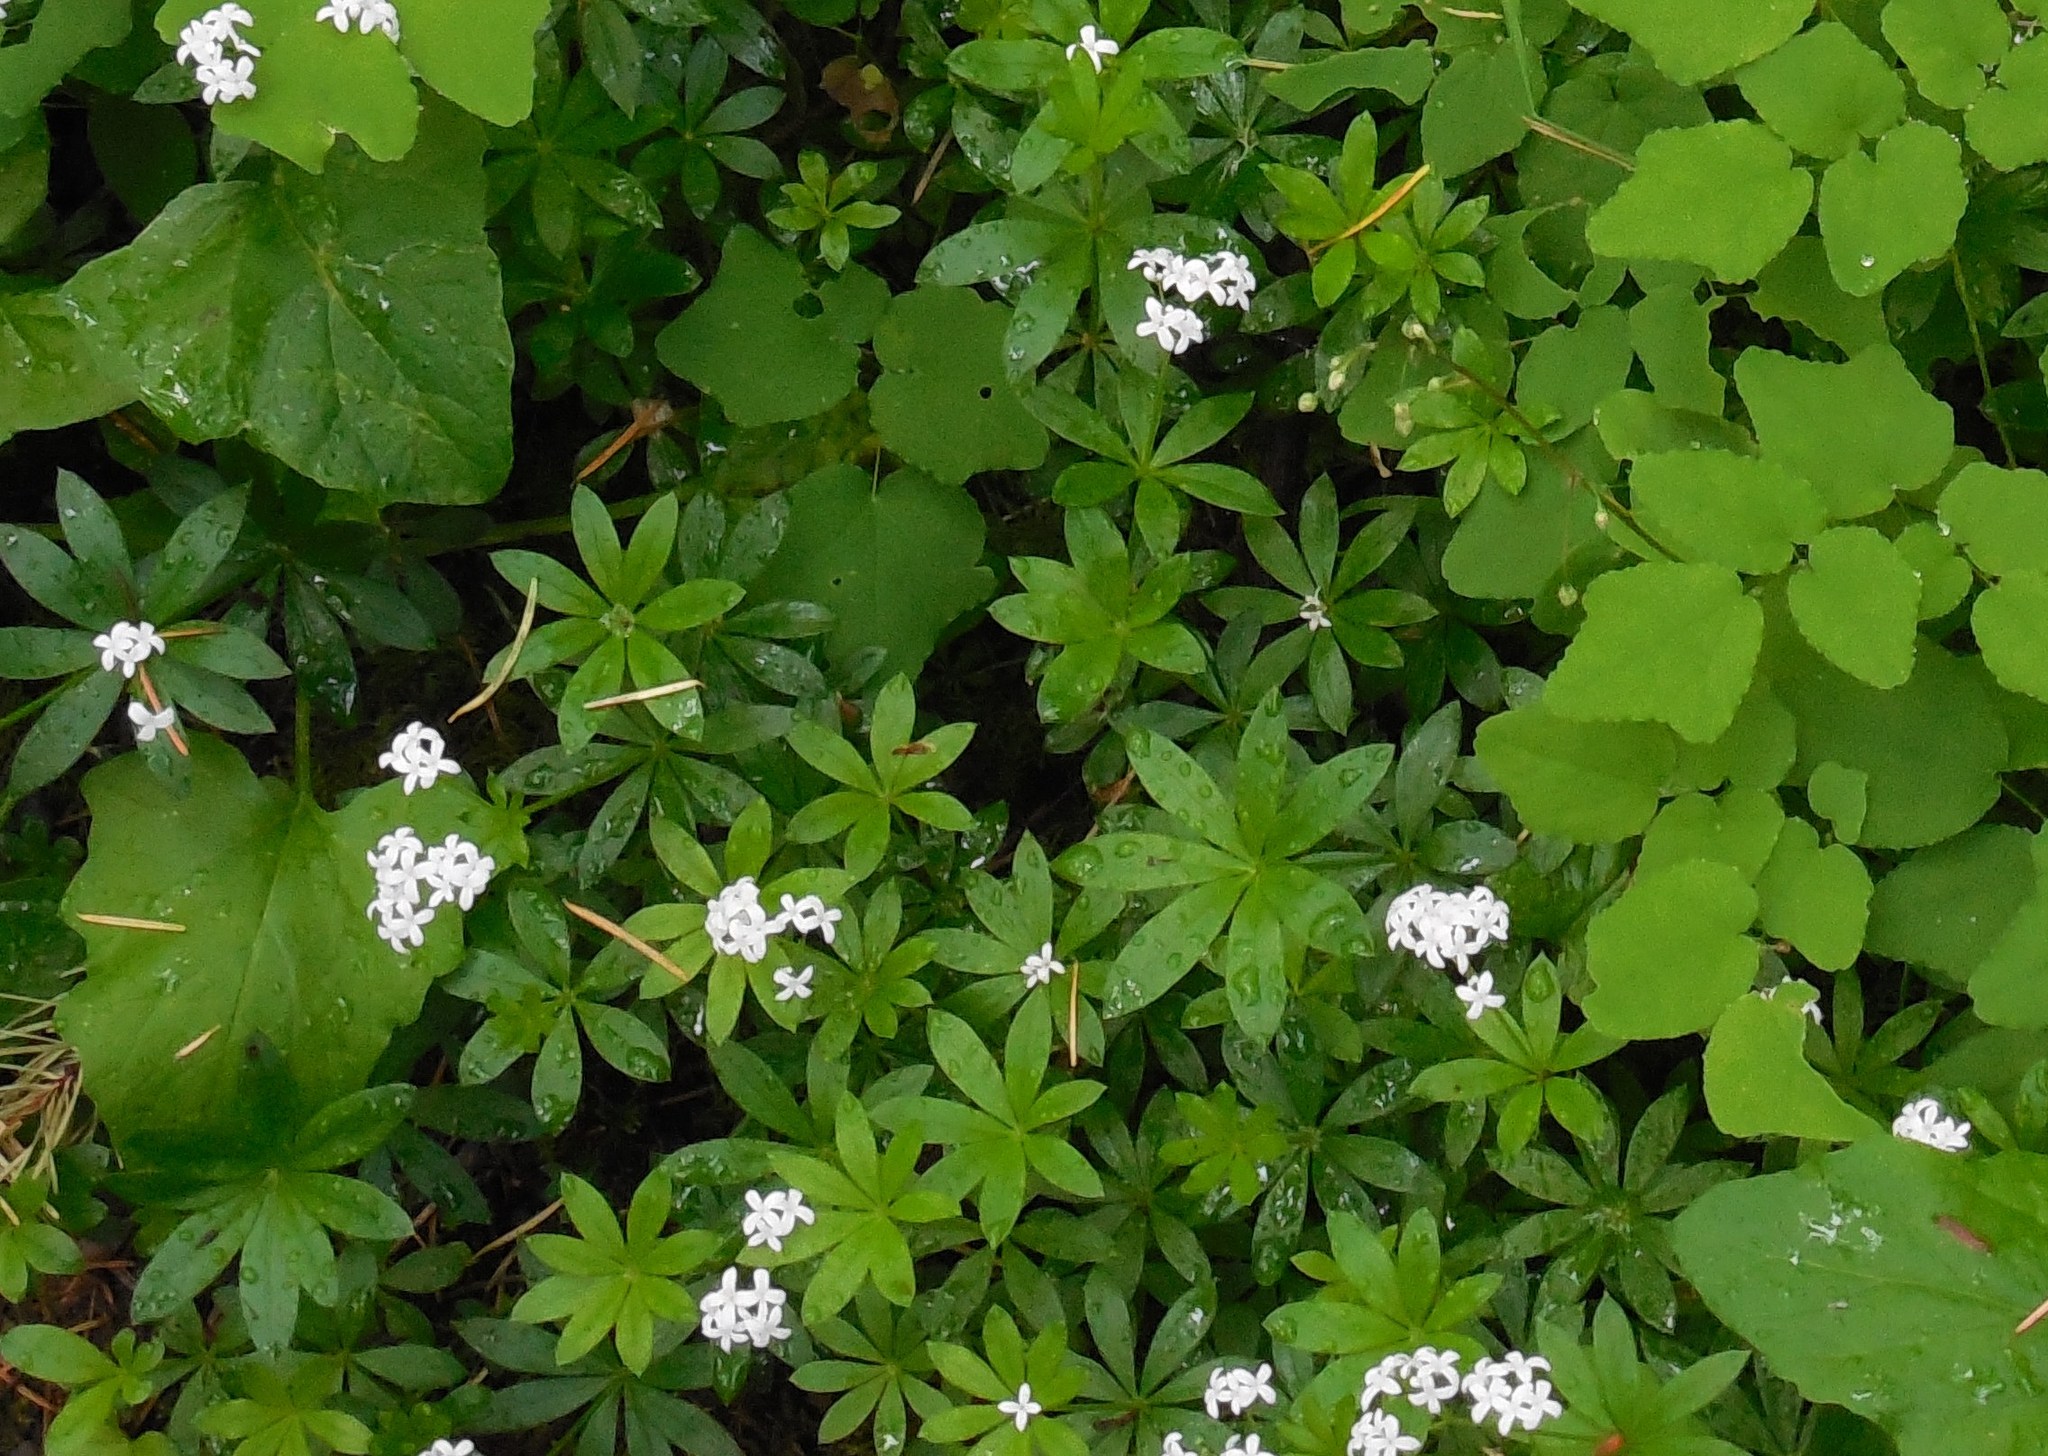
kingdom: Plantae
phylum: Tracheophyta
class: Magnoliopsida
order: Gentianales
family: Rubiaceae
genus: Galium
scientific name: Galium odoratum
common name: Sweet woodruff
